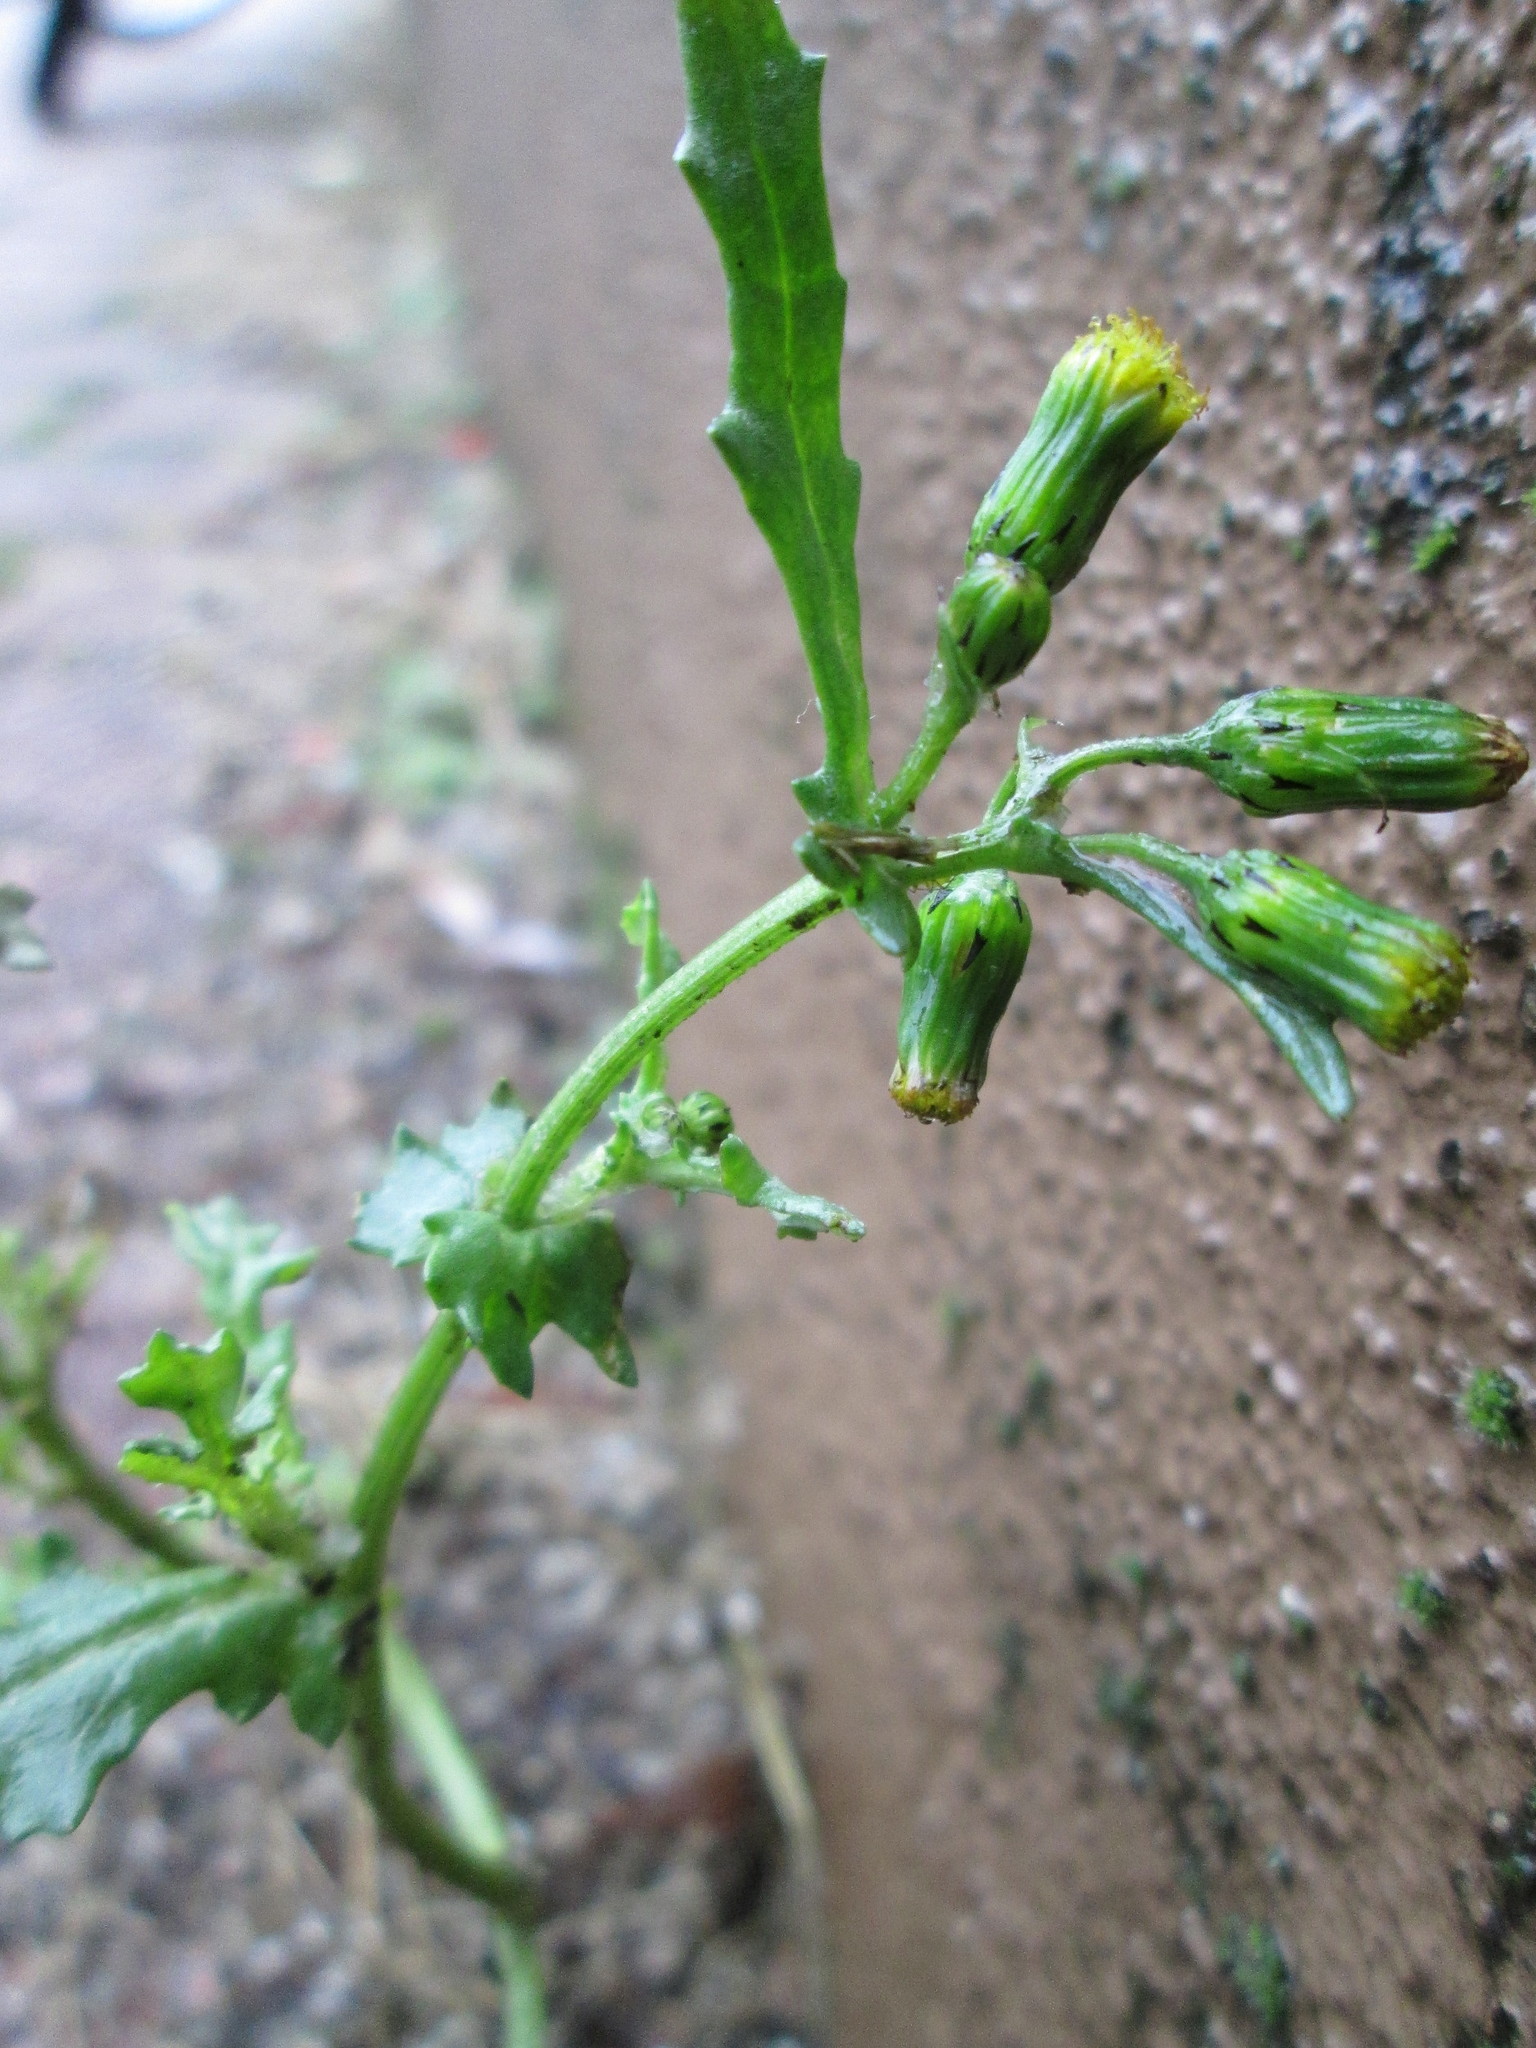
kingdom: Plantae
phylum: Tracheophyta
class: Magnoliopsida
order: Asterales
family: Asteraceae
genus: Senecio
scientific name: Senecio vulgaris
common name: Old-man-in-the-spring
